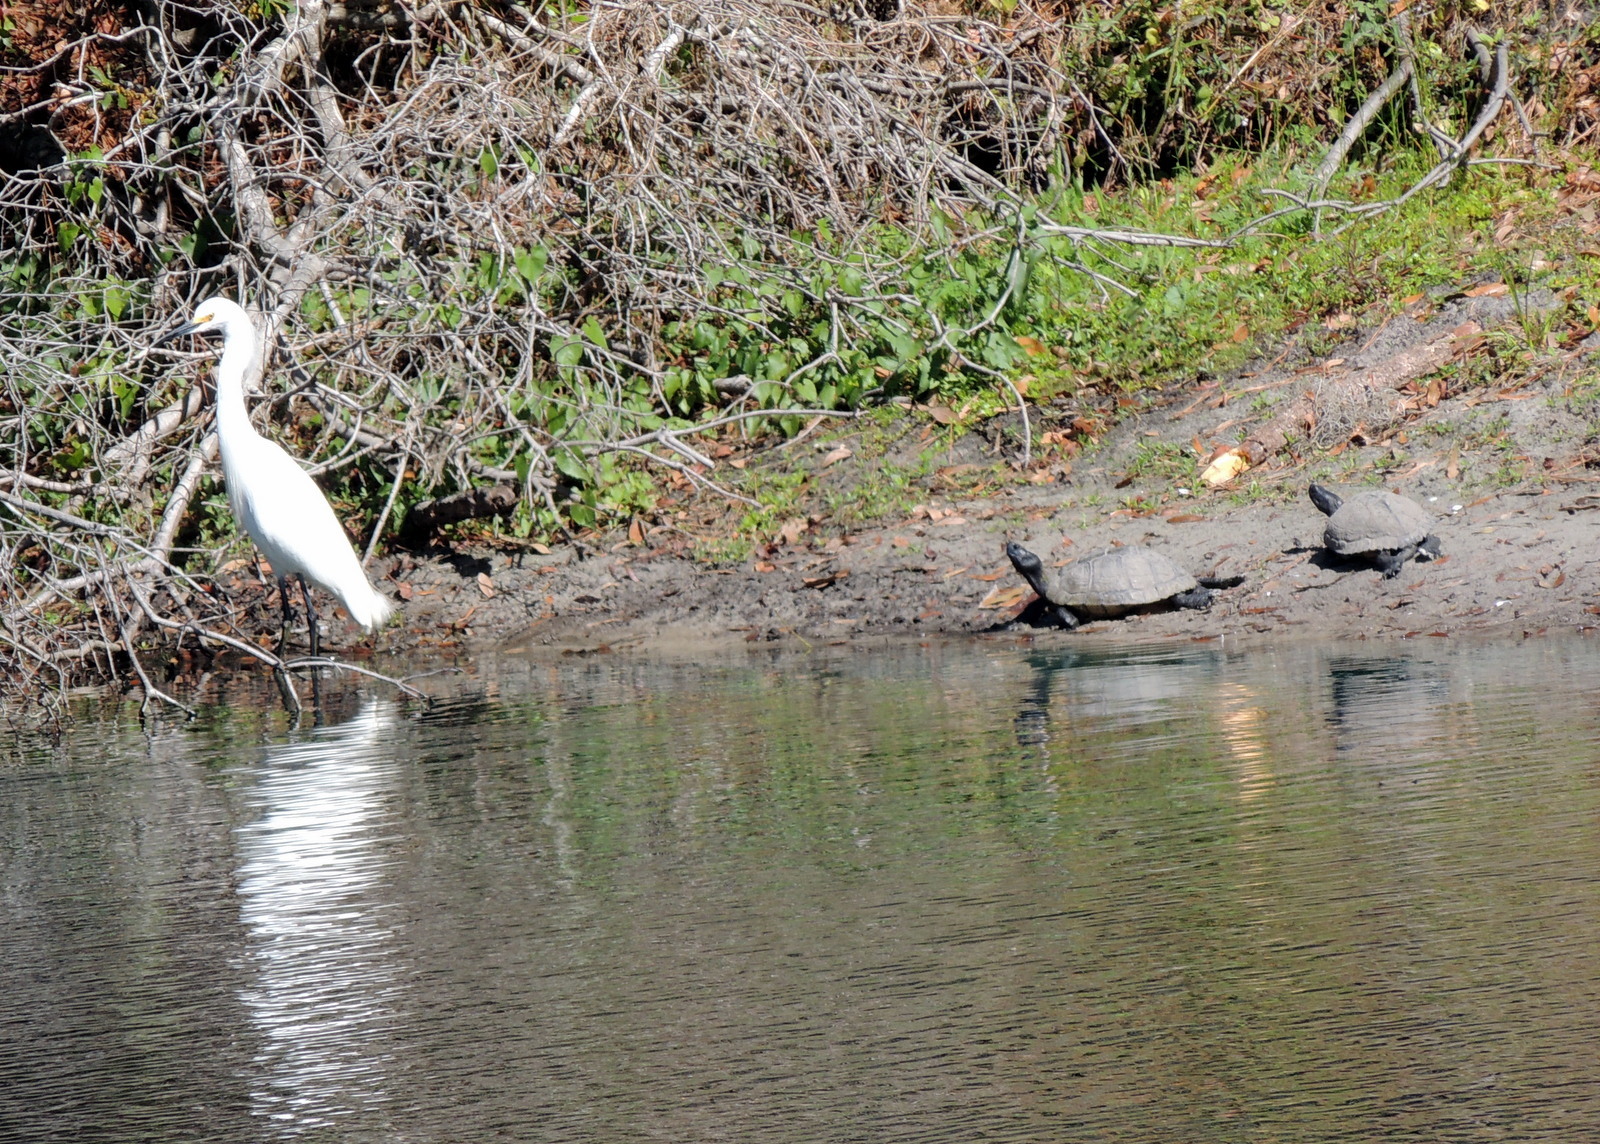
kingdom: Animalia
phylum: Chordata
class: Testudines
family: Emydidae
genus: Trachemys
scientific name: Trachemys scripta
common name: Slider
